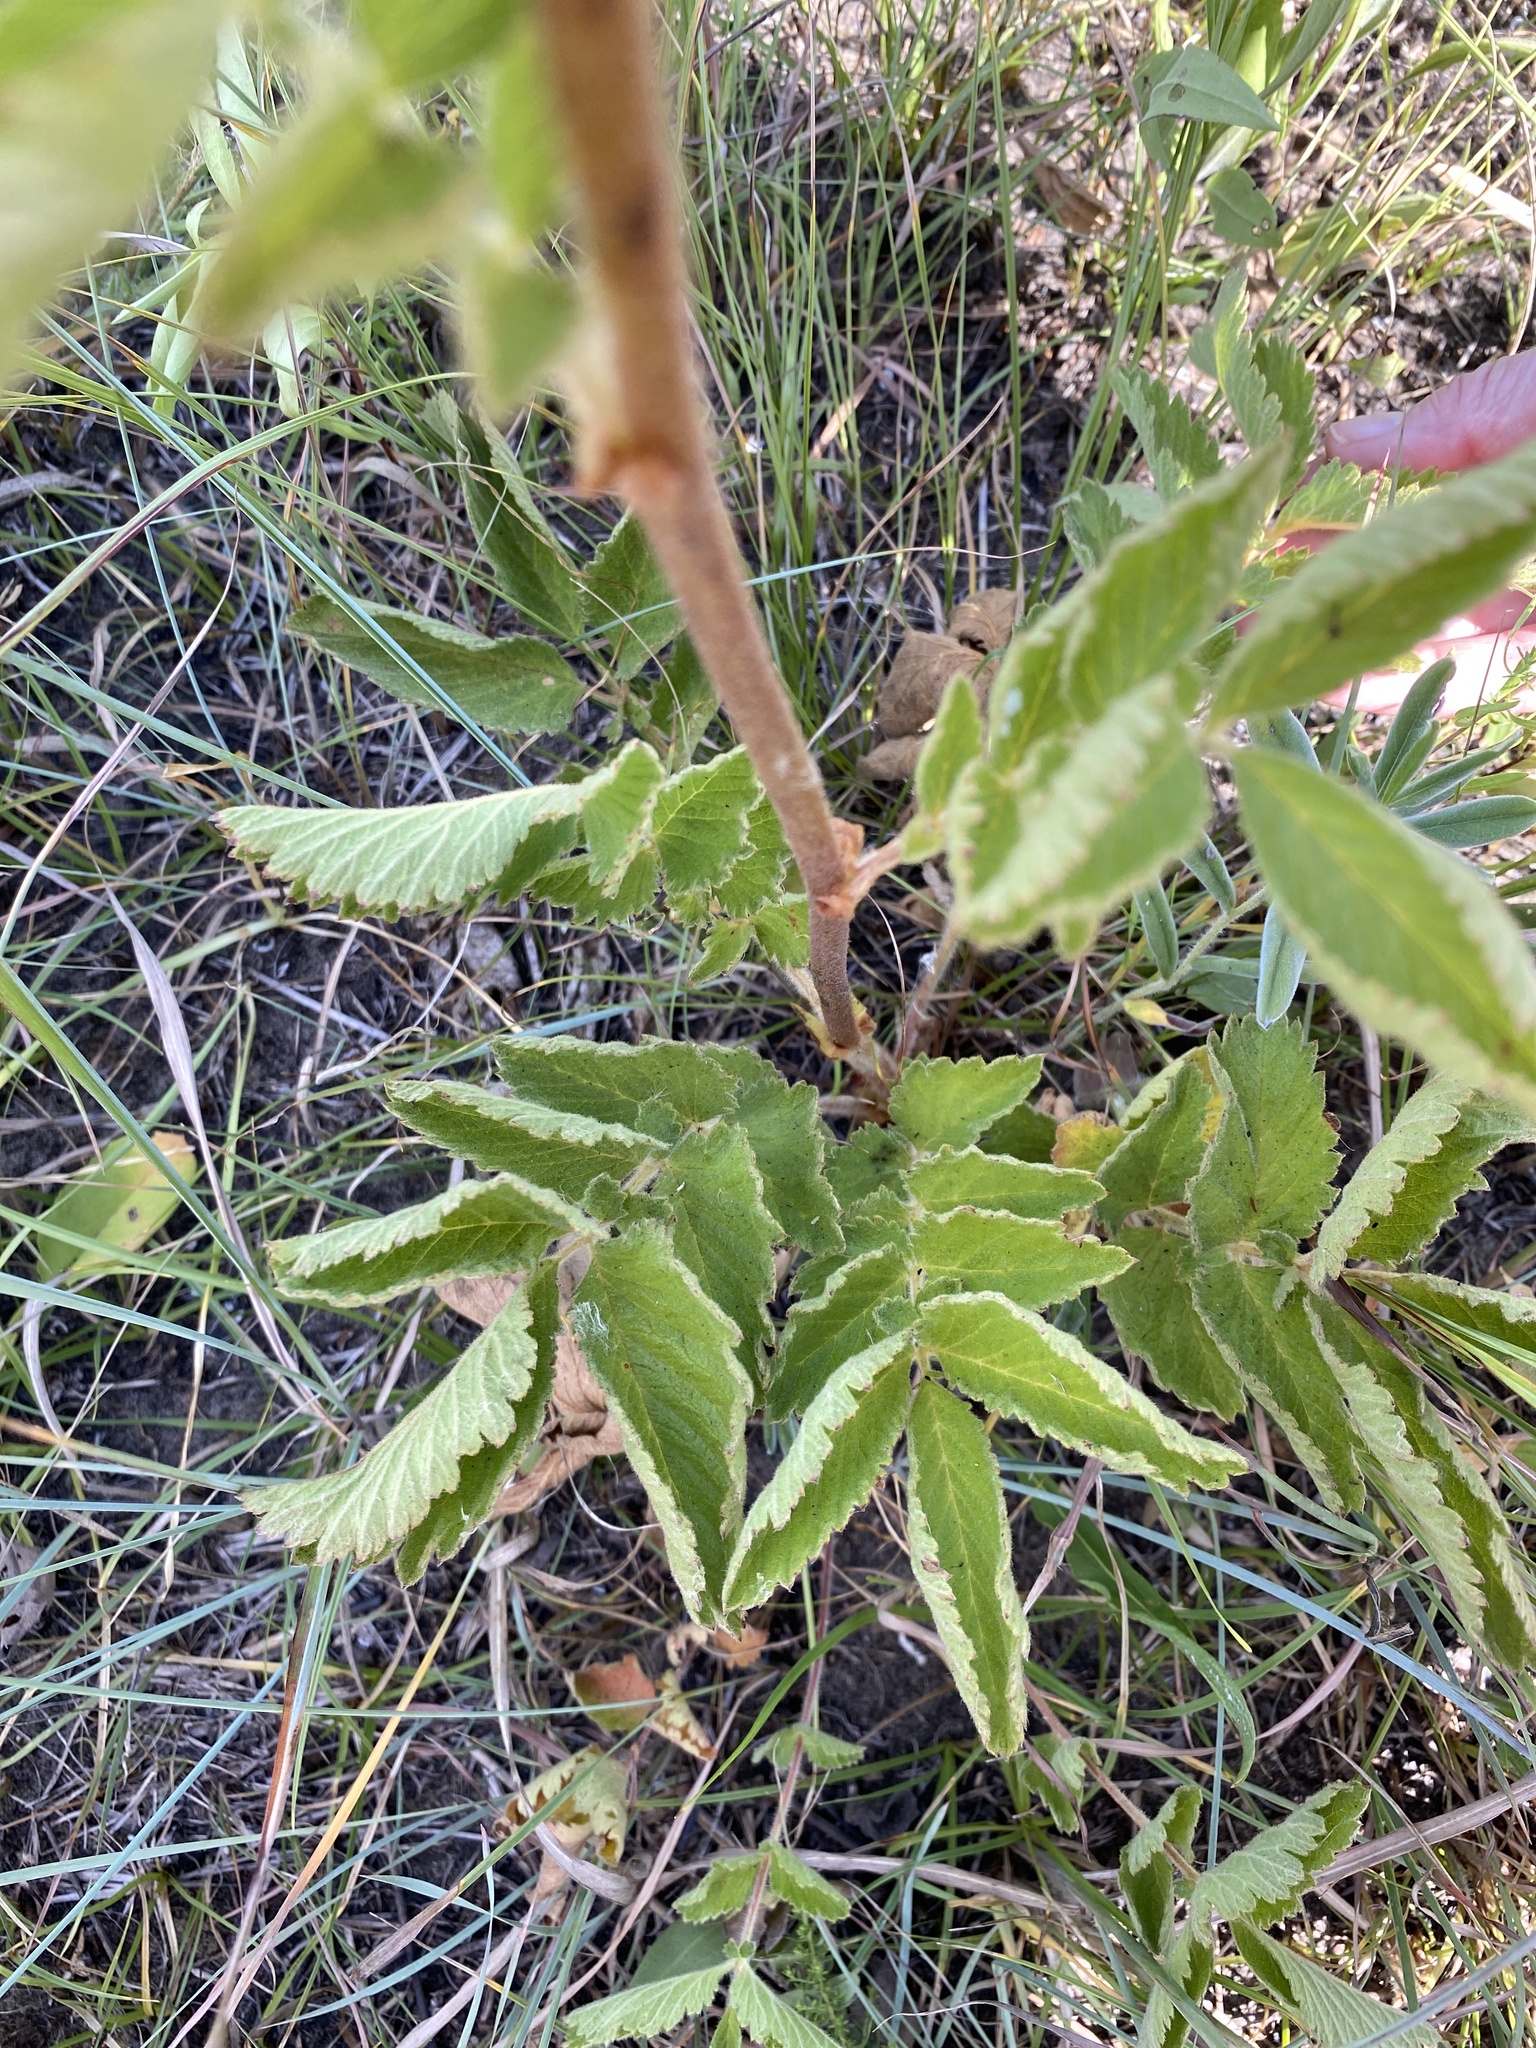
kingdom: Plantae
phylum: Tracheophyta
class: Magnoliopsida
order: Rosales
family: Rosaceae
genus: Drymocallis
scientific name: Drymocallis arguta
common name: Tall cinquefoil
